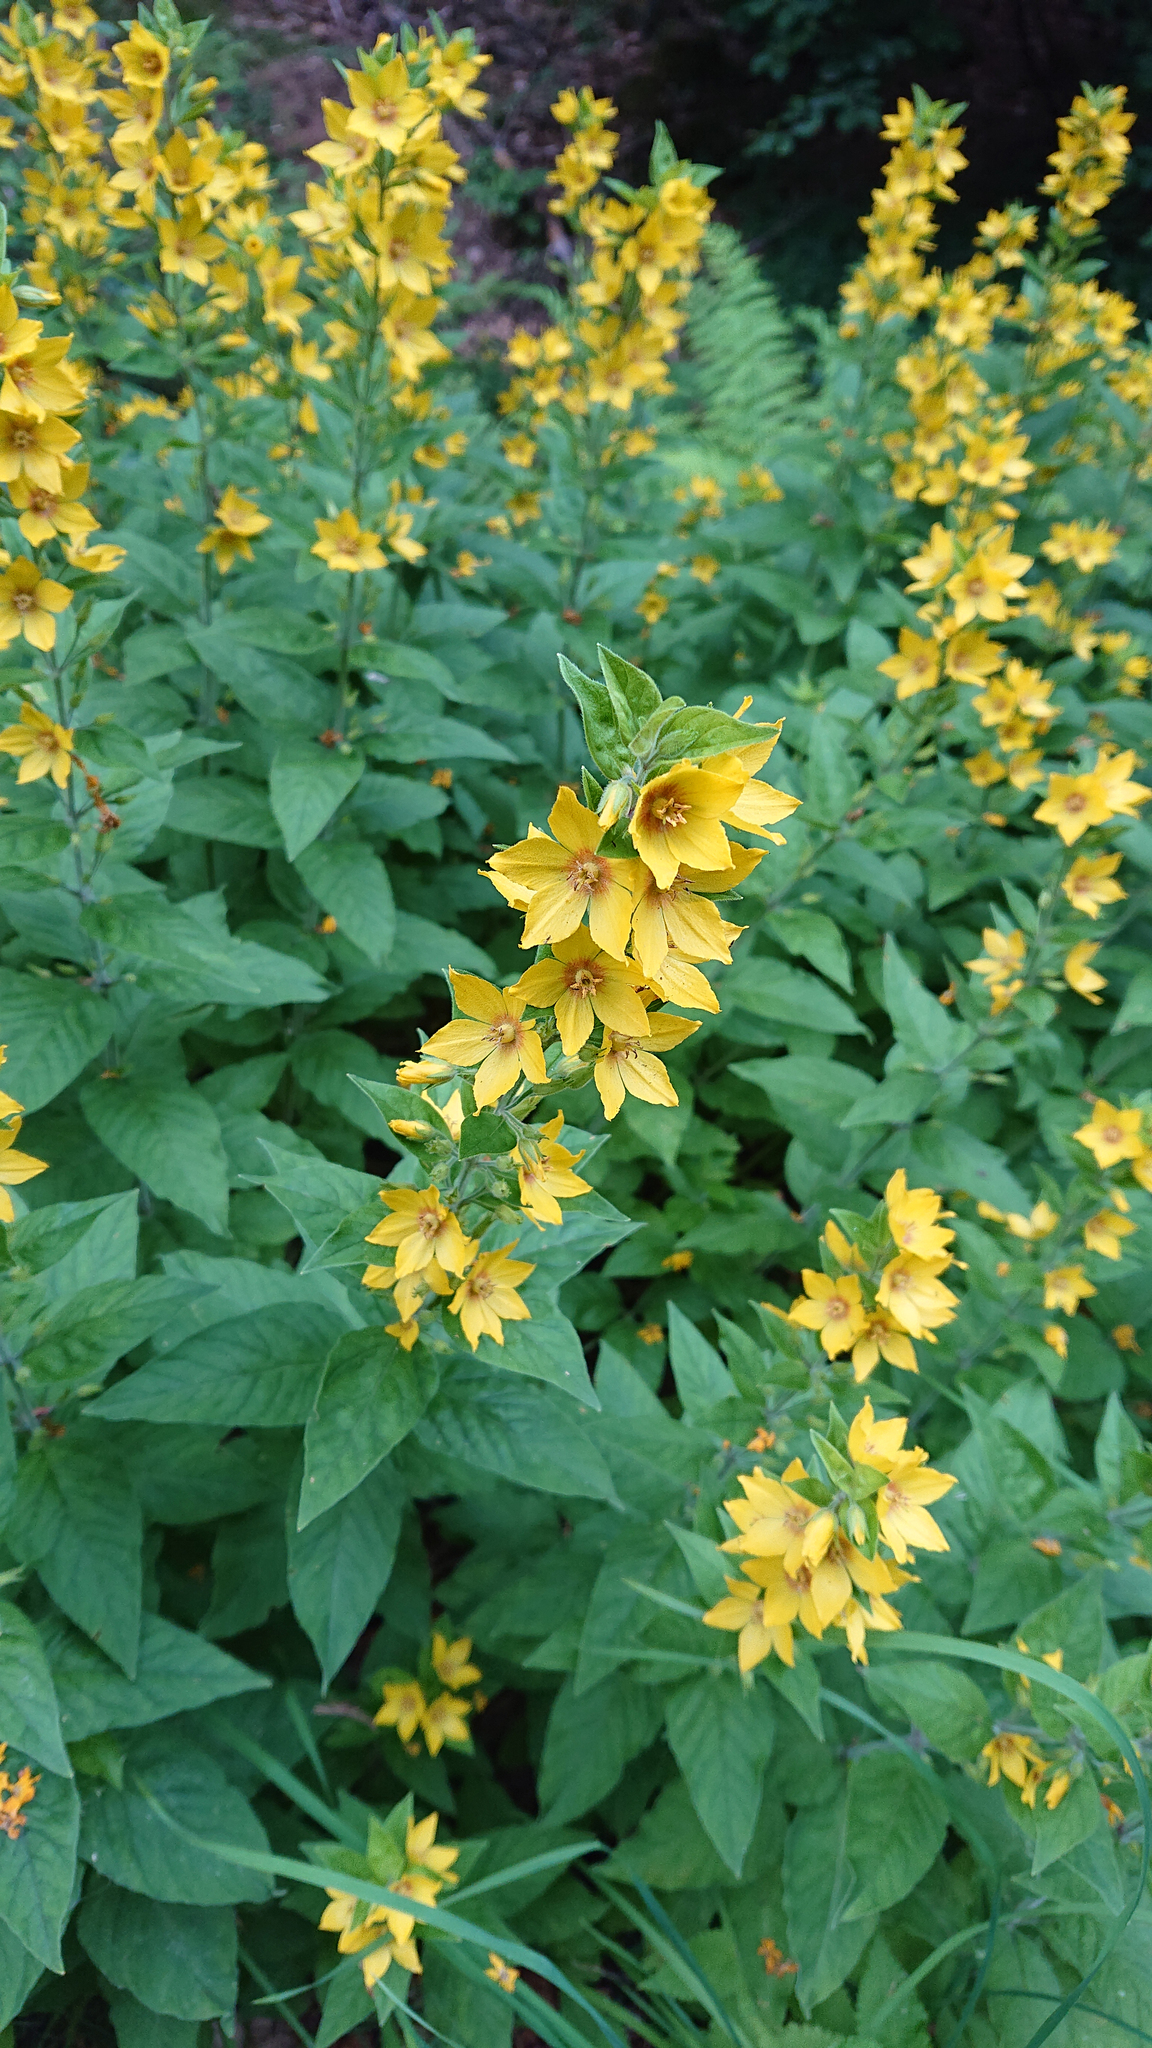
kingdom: Plantae
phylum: Tracheophyta
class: Magnoliopsida
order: Ericales
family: Primulaceae
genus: Lysimachia
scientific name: Lysimachia punctata
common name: Dotted loosestrife
